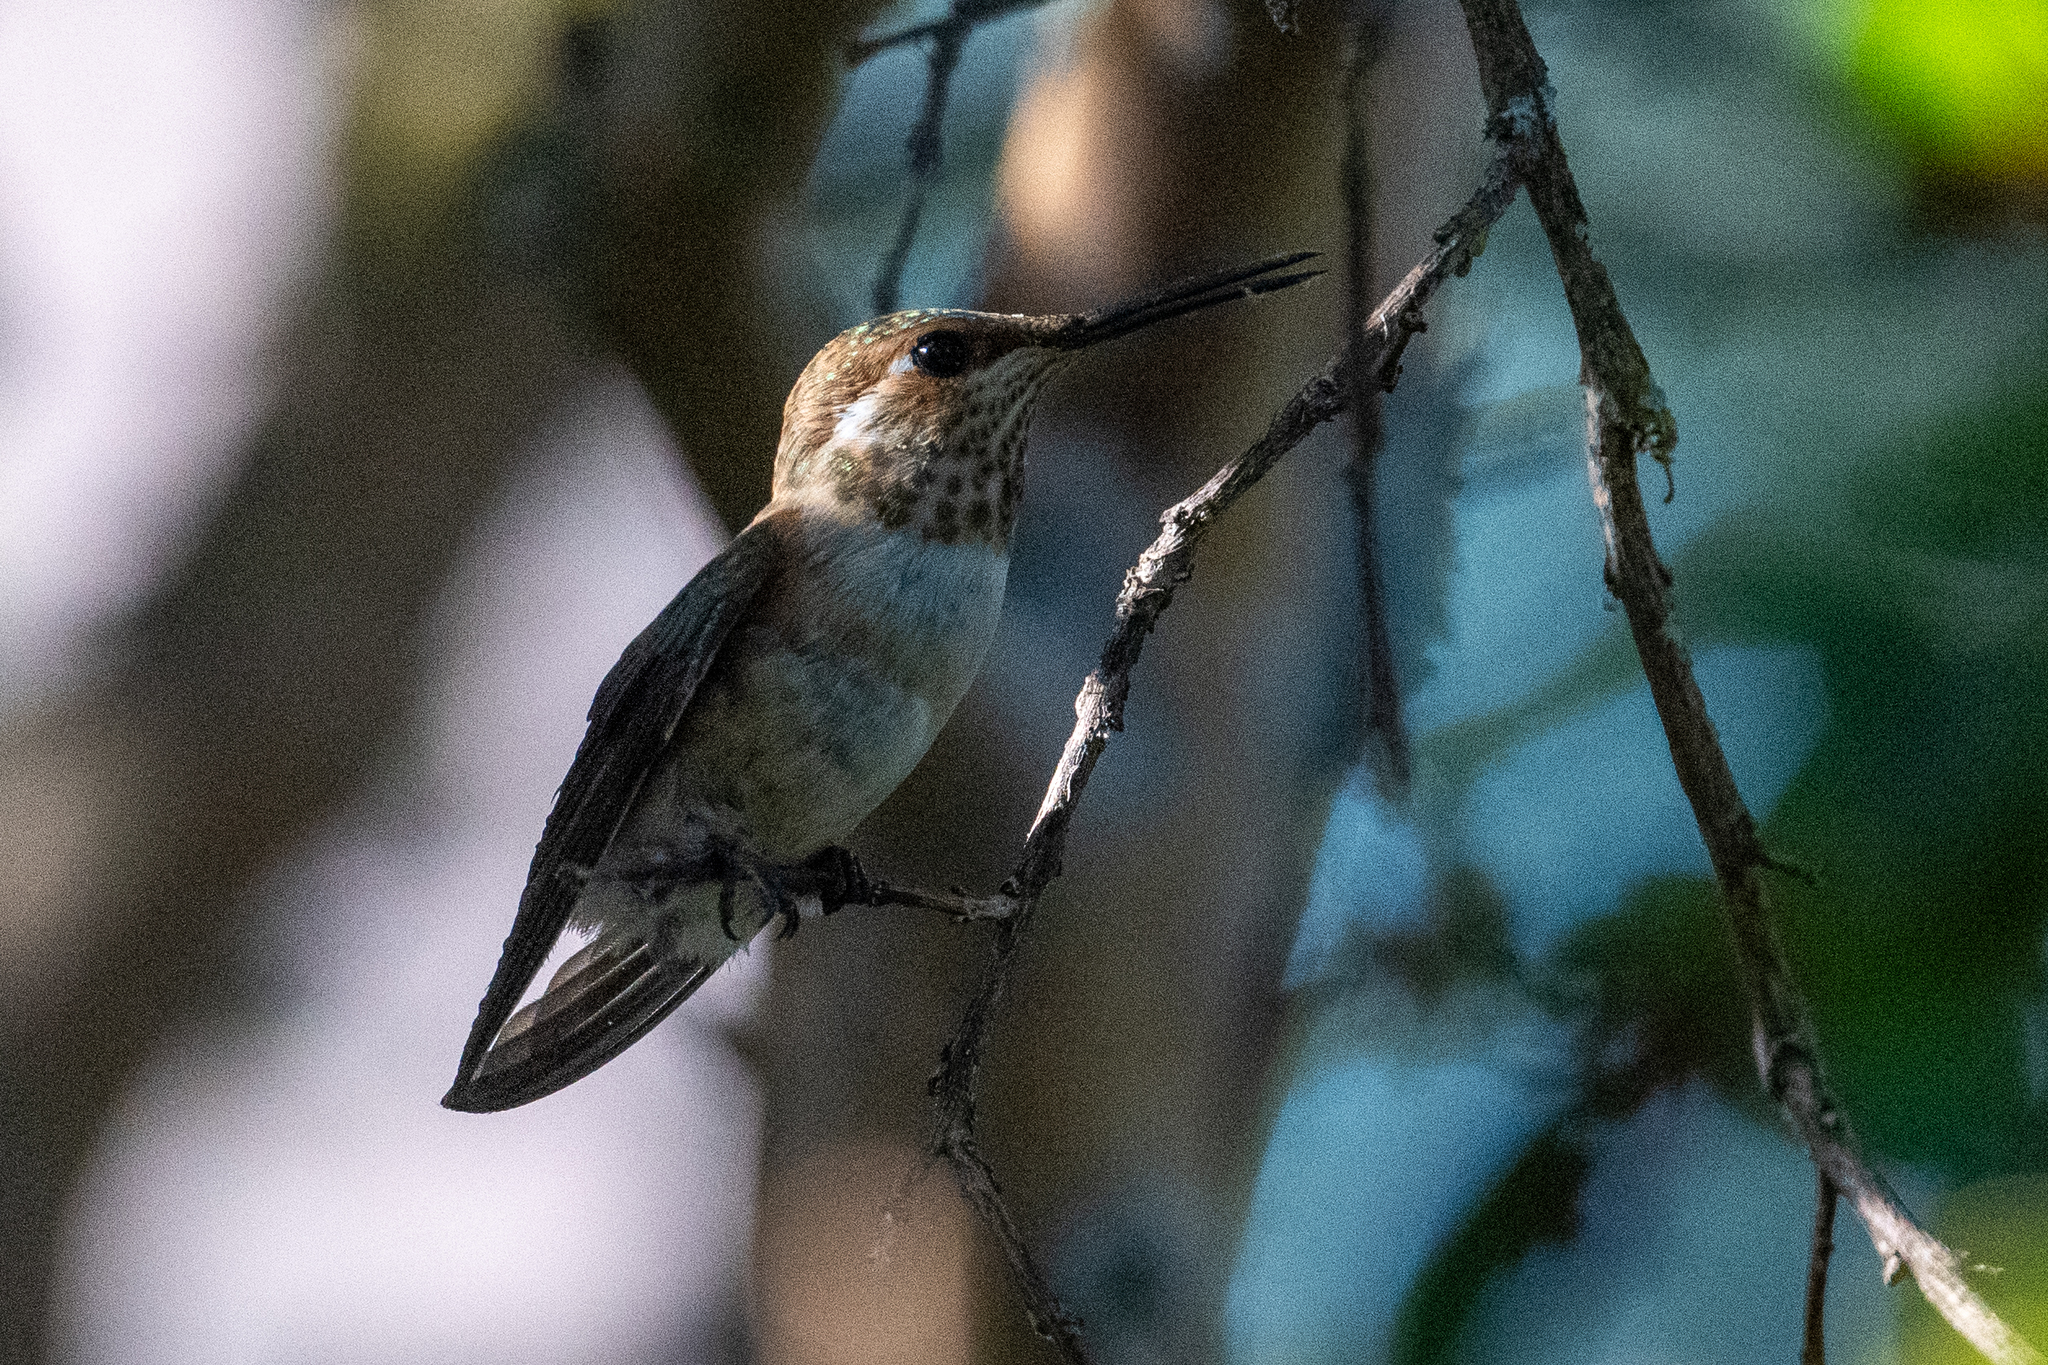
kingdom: Animalia
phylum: Chordata
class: Aves
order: Apodiformes
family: Trochilidae
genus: Selasphorus
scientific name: Selasphorus rufus
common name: Rufous hummingbird
